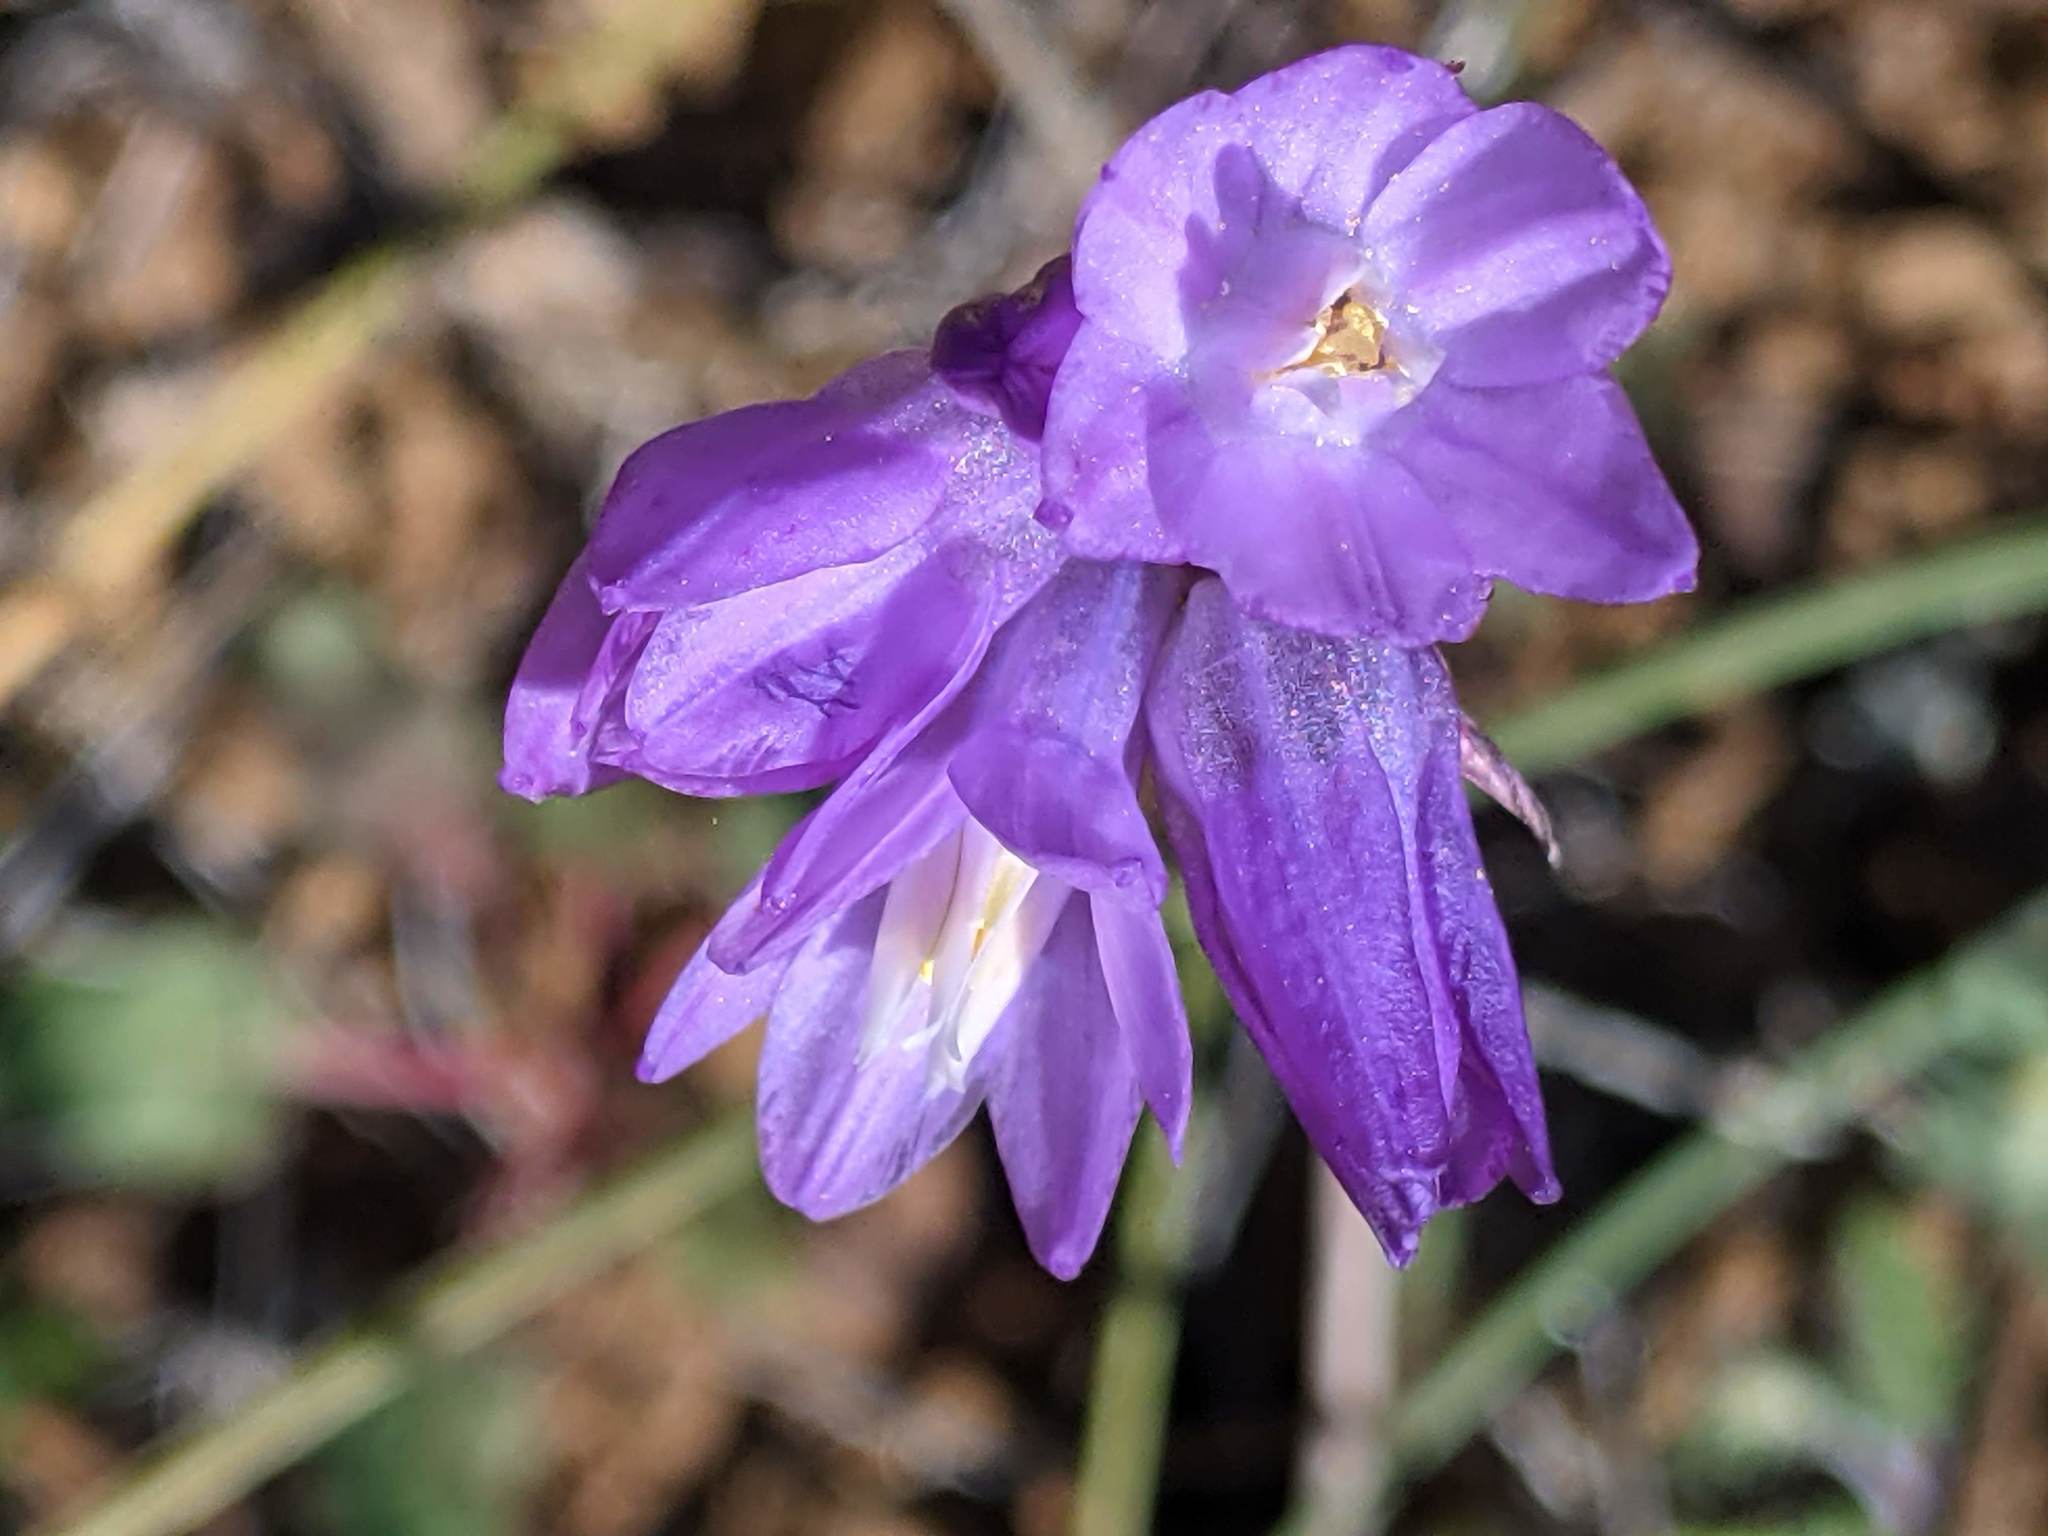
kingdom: Plantae
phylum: Tracheophyta
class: Liliopsida
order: Asparagales
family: Asparagaceae
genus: Dipterostemon
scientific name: Dipterostemon capitatus
